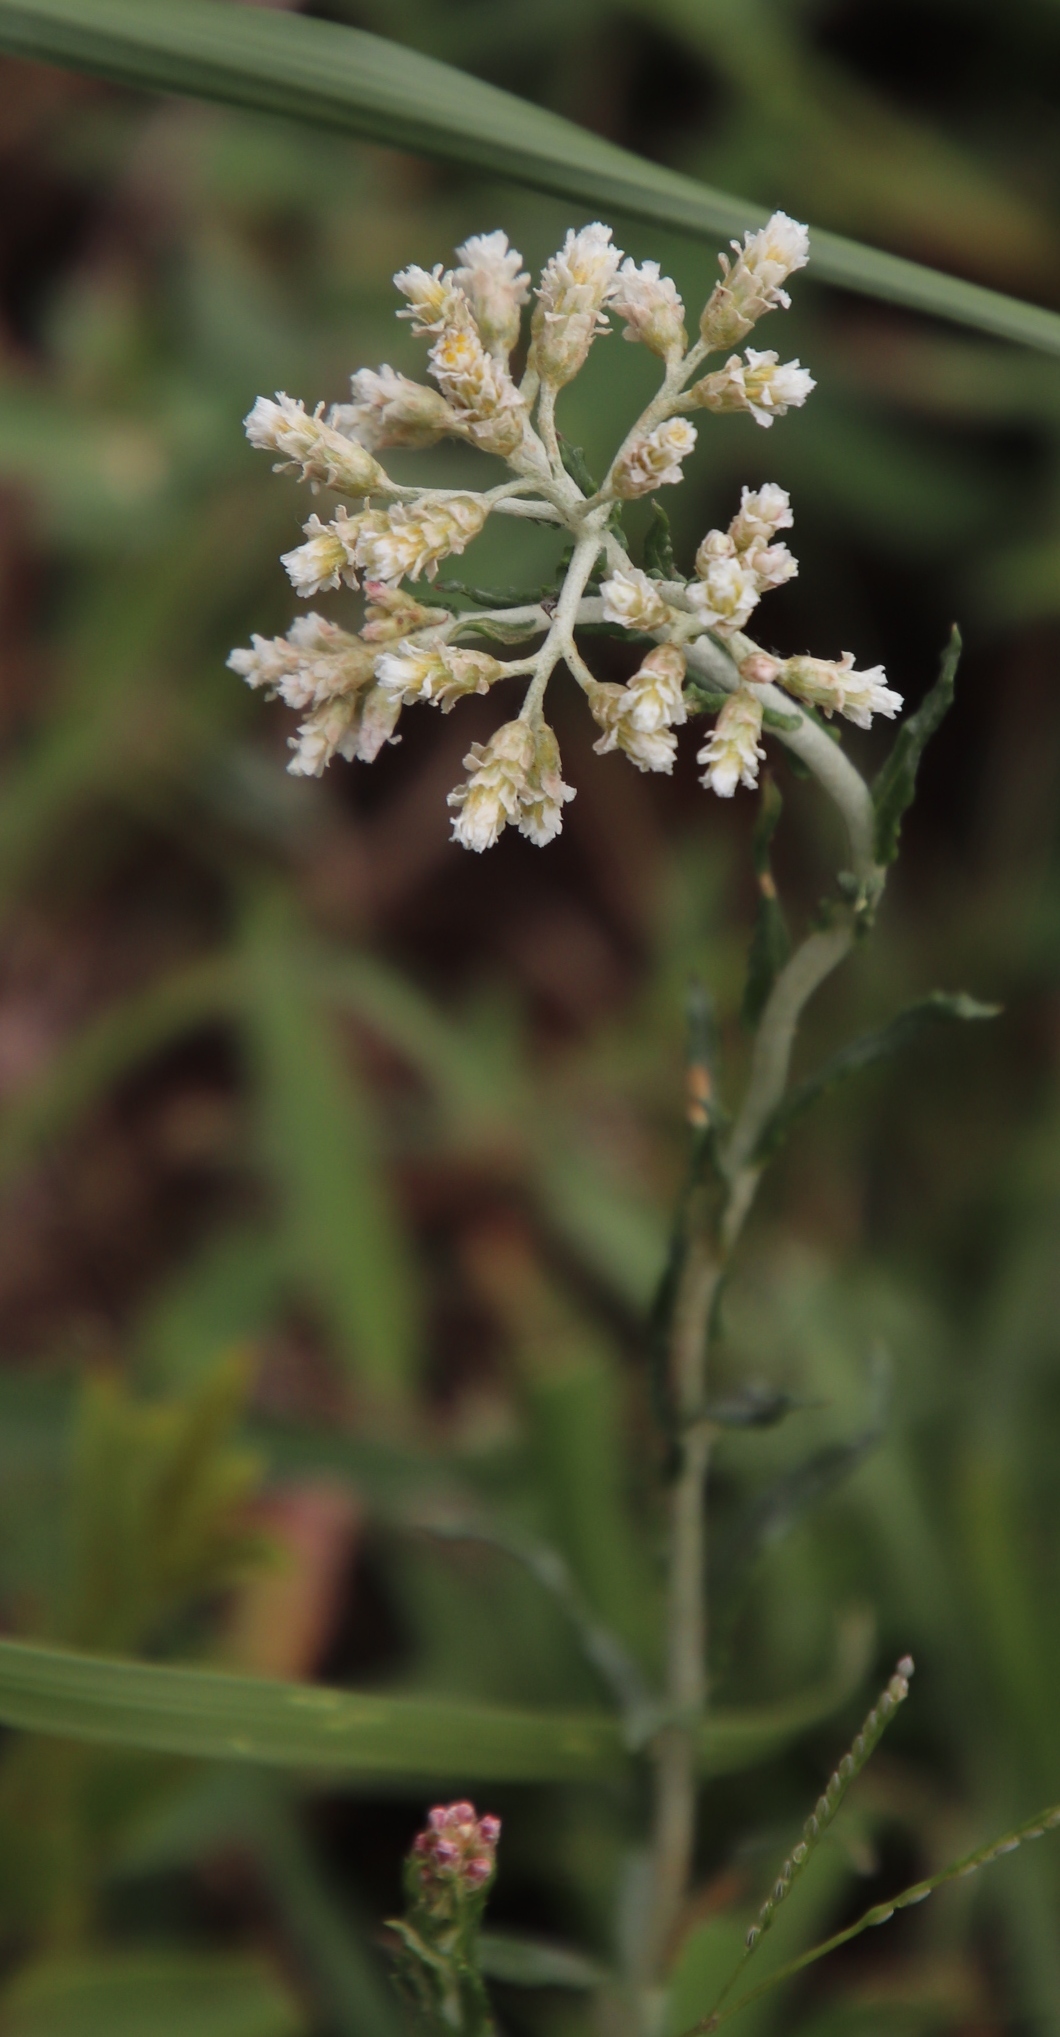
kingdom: Plantae
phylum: Tracheophyta
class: Magnoliopsida
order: Asterales
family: Asteraceae
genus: Helichrysum
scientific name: Helichrysum rugulosum
